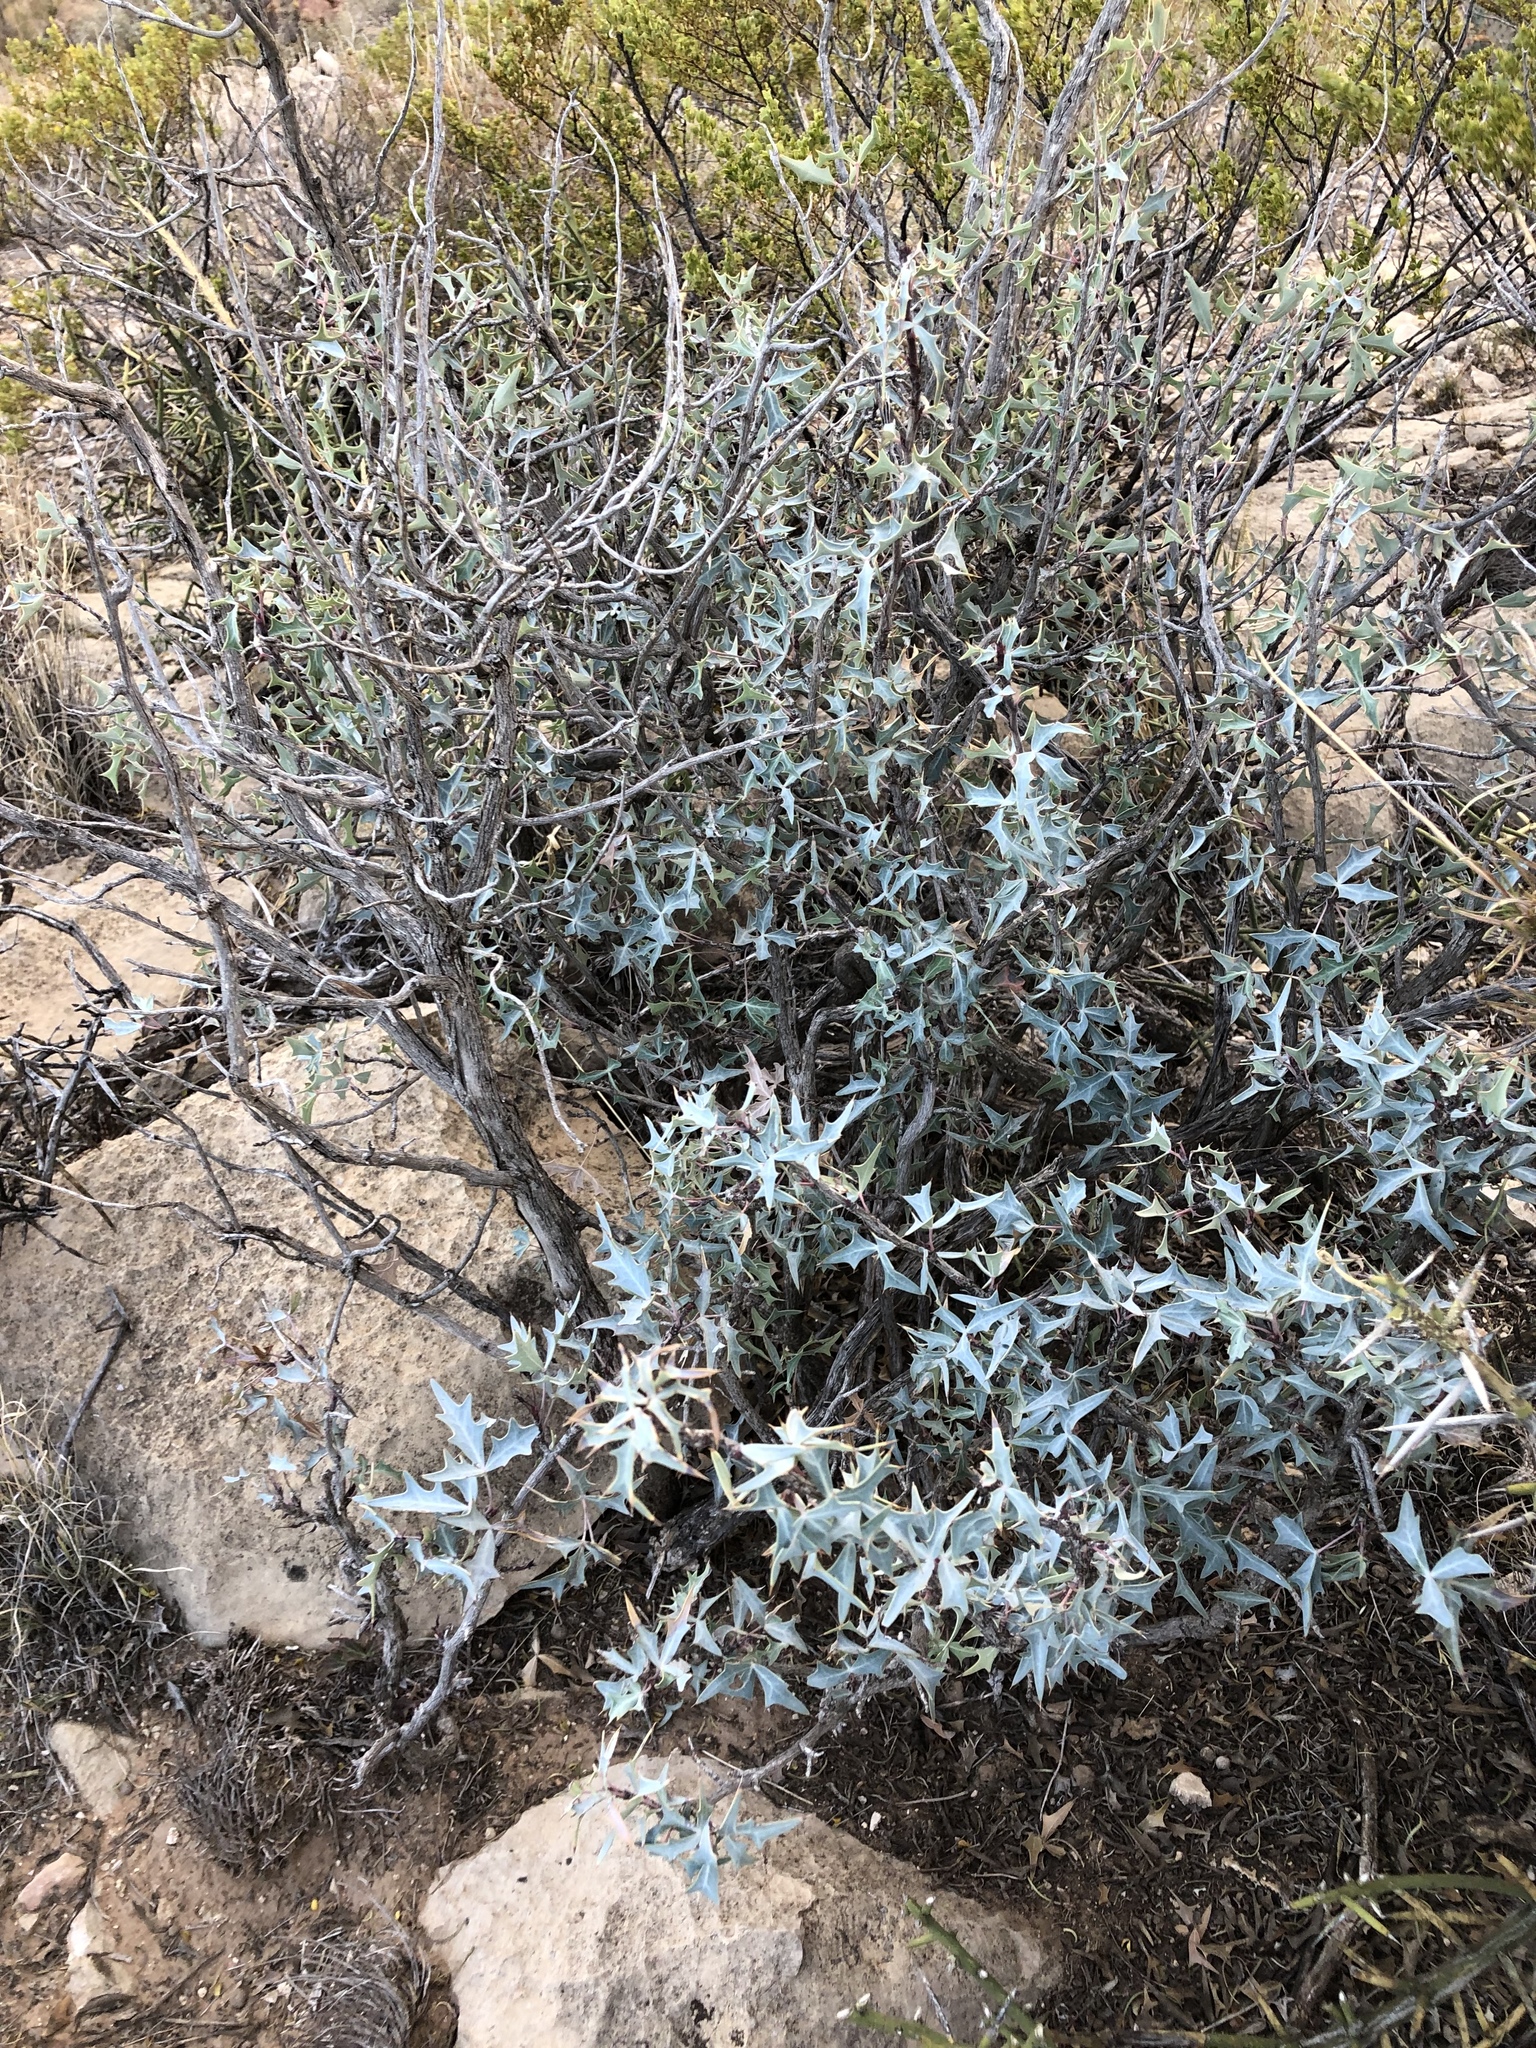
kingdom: Plantae
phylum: Tracheophyta
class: Magnoliopsida
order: Ranunculales
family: Berberidaceae
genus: Alloberberis
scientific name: Alloberberis trifoliolata
